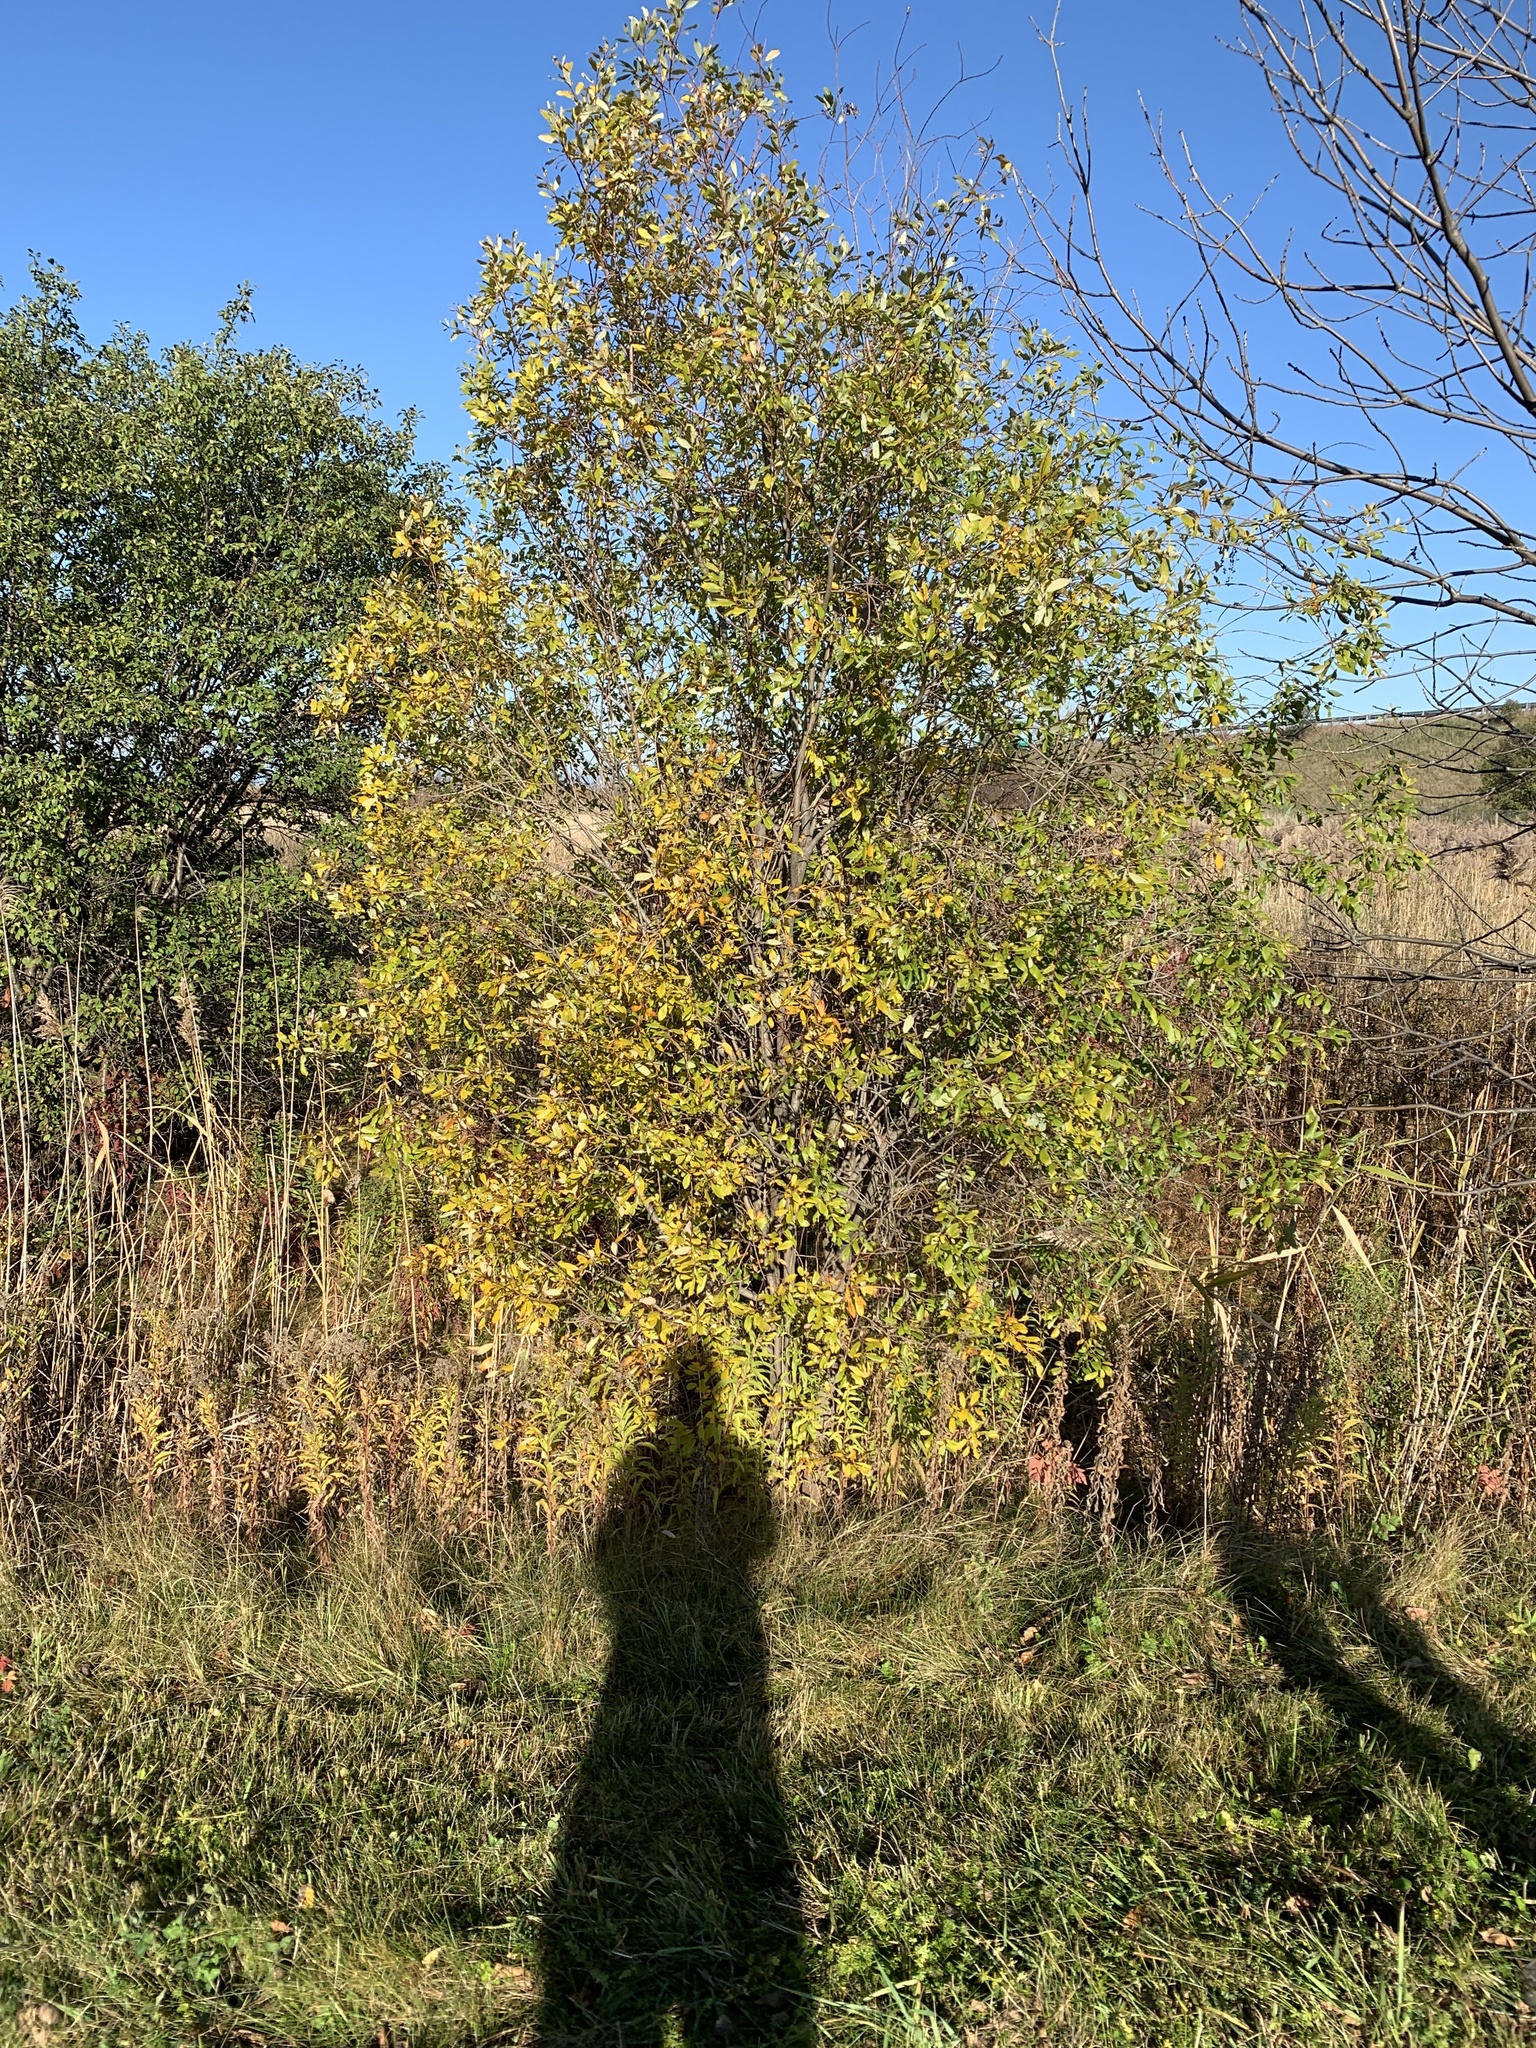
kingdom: Plantae
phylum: Tracheophyta
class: Magnoliopsida
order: Malpighiales
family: Salicaceae
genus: Salix
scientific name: Salix bebbiana
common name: Bebb's willow
